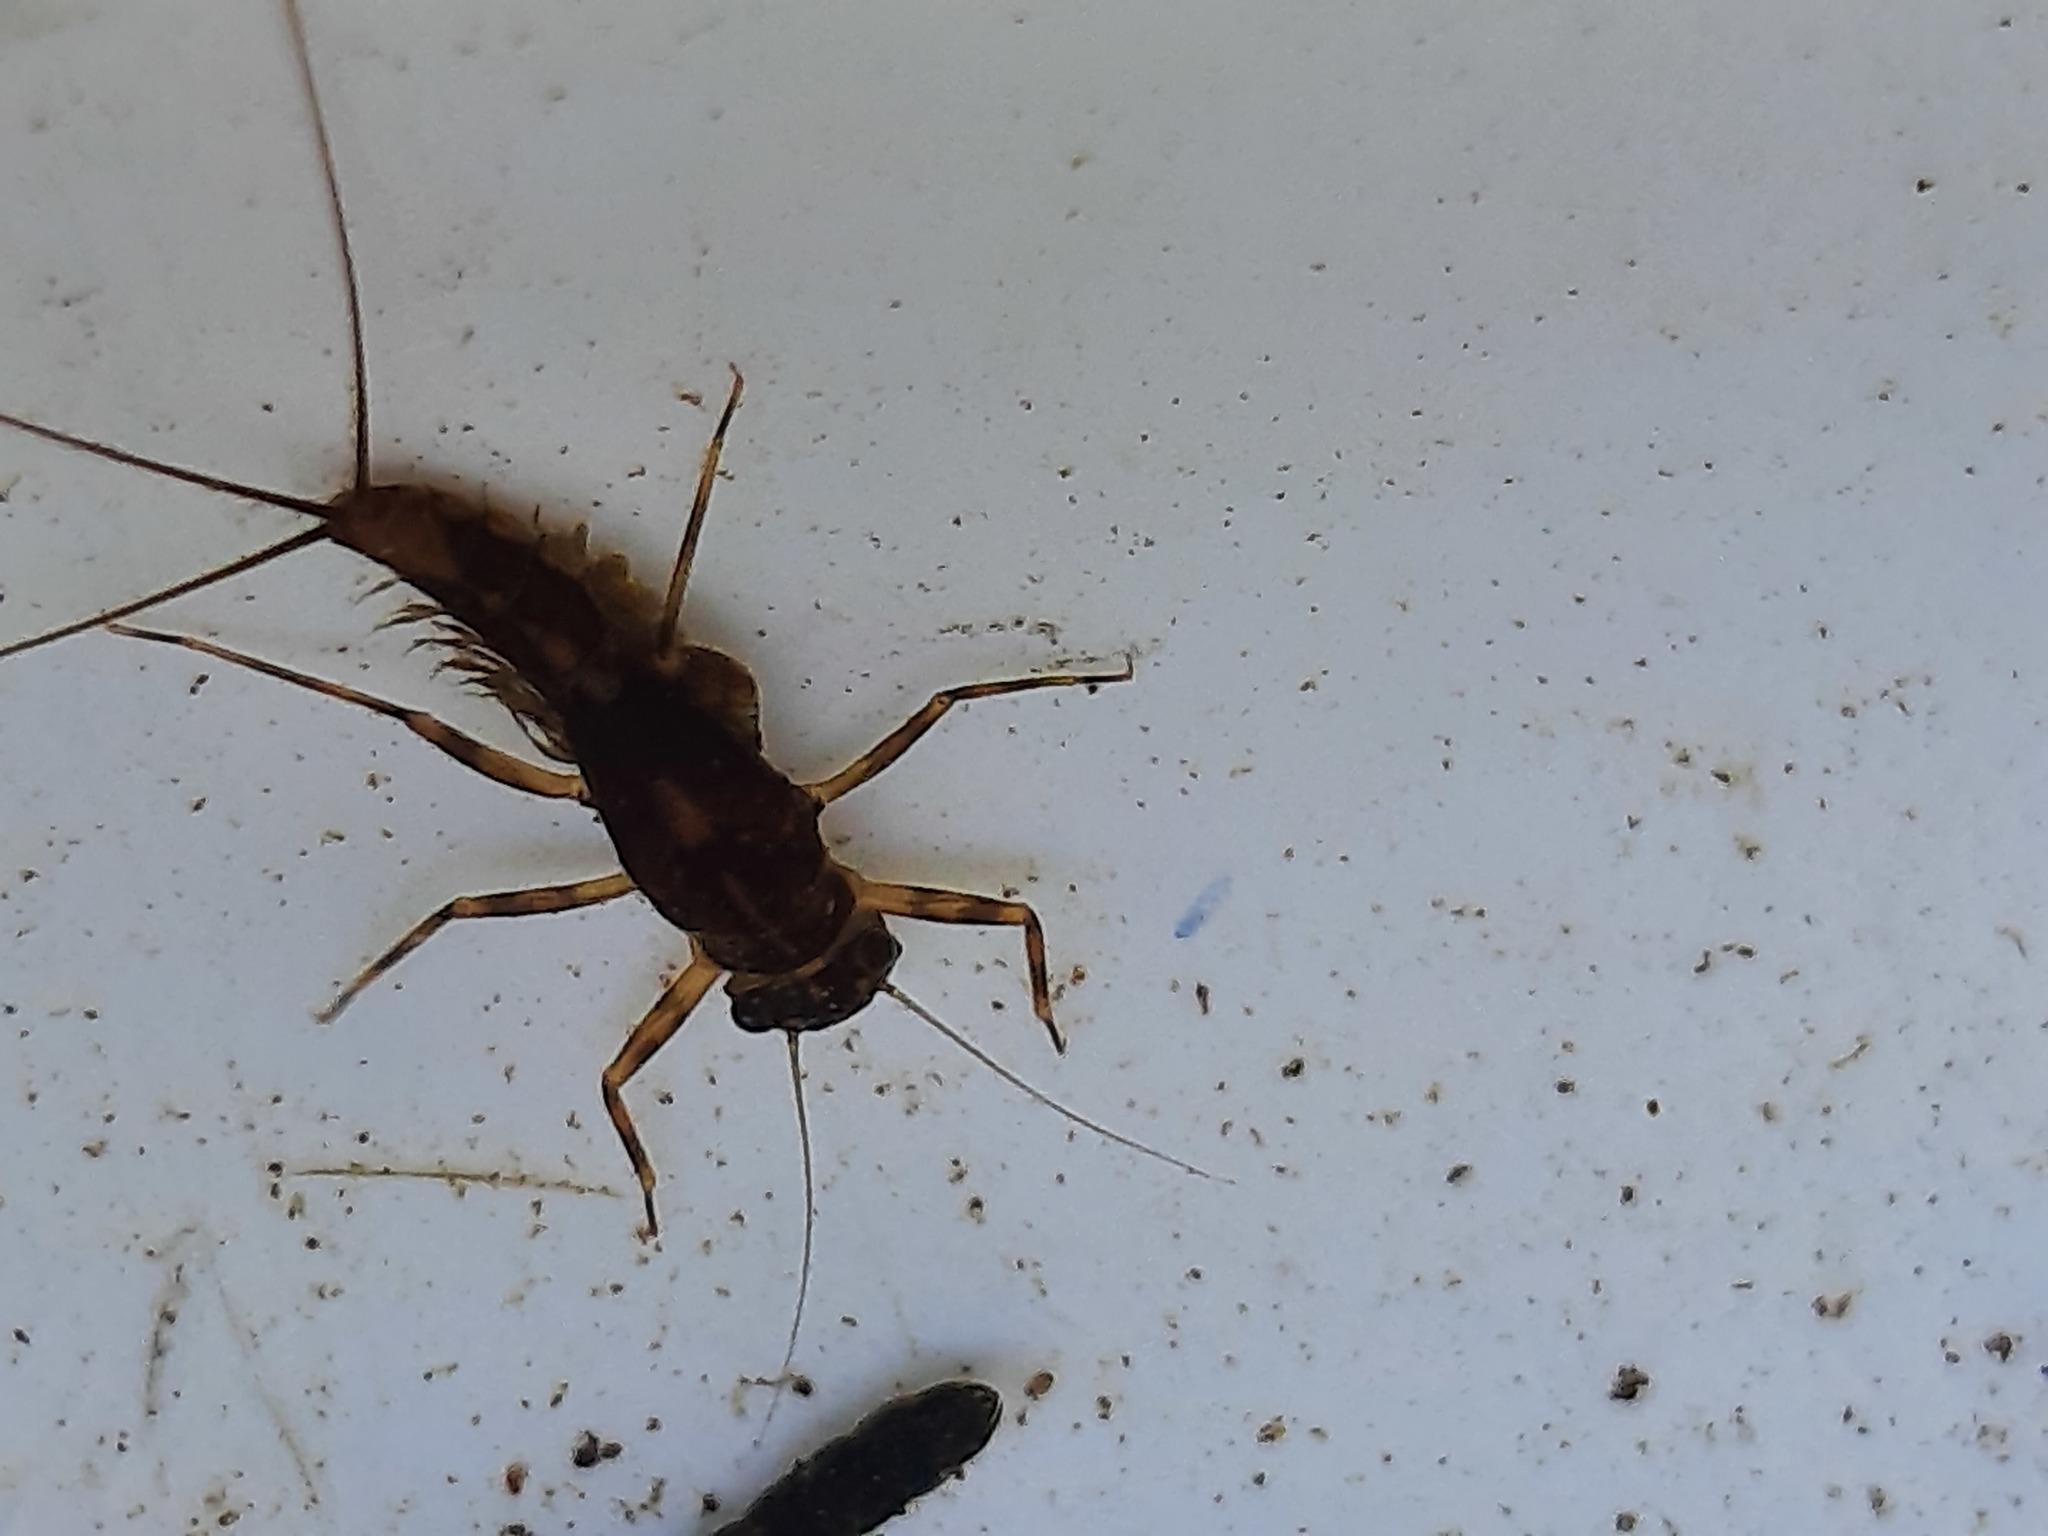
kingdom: Animalia
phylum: Arthropoda
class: Insecta
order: Ephemeroptera
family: Leptophlebiidae
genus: Zephlebia
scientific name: Zephlebia versicolor
